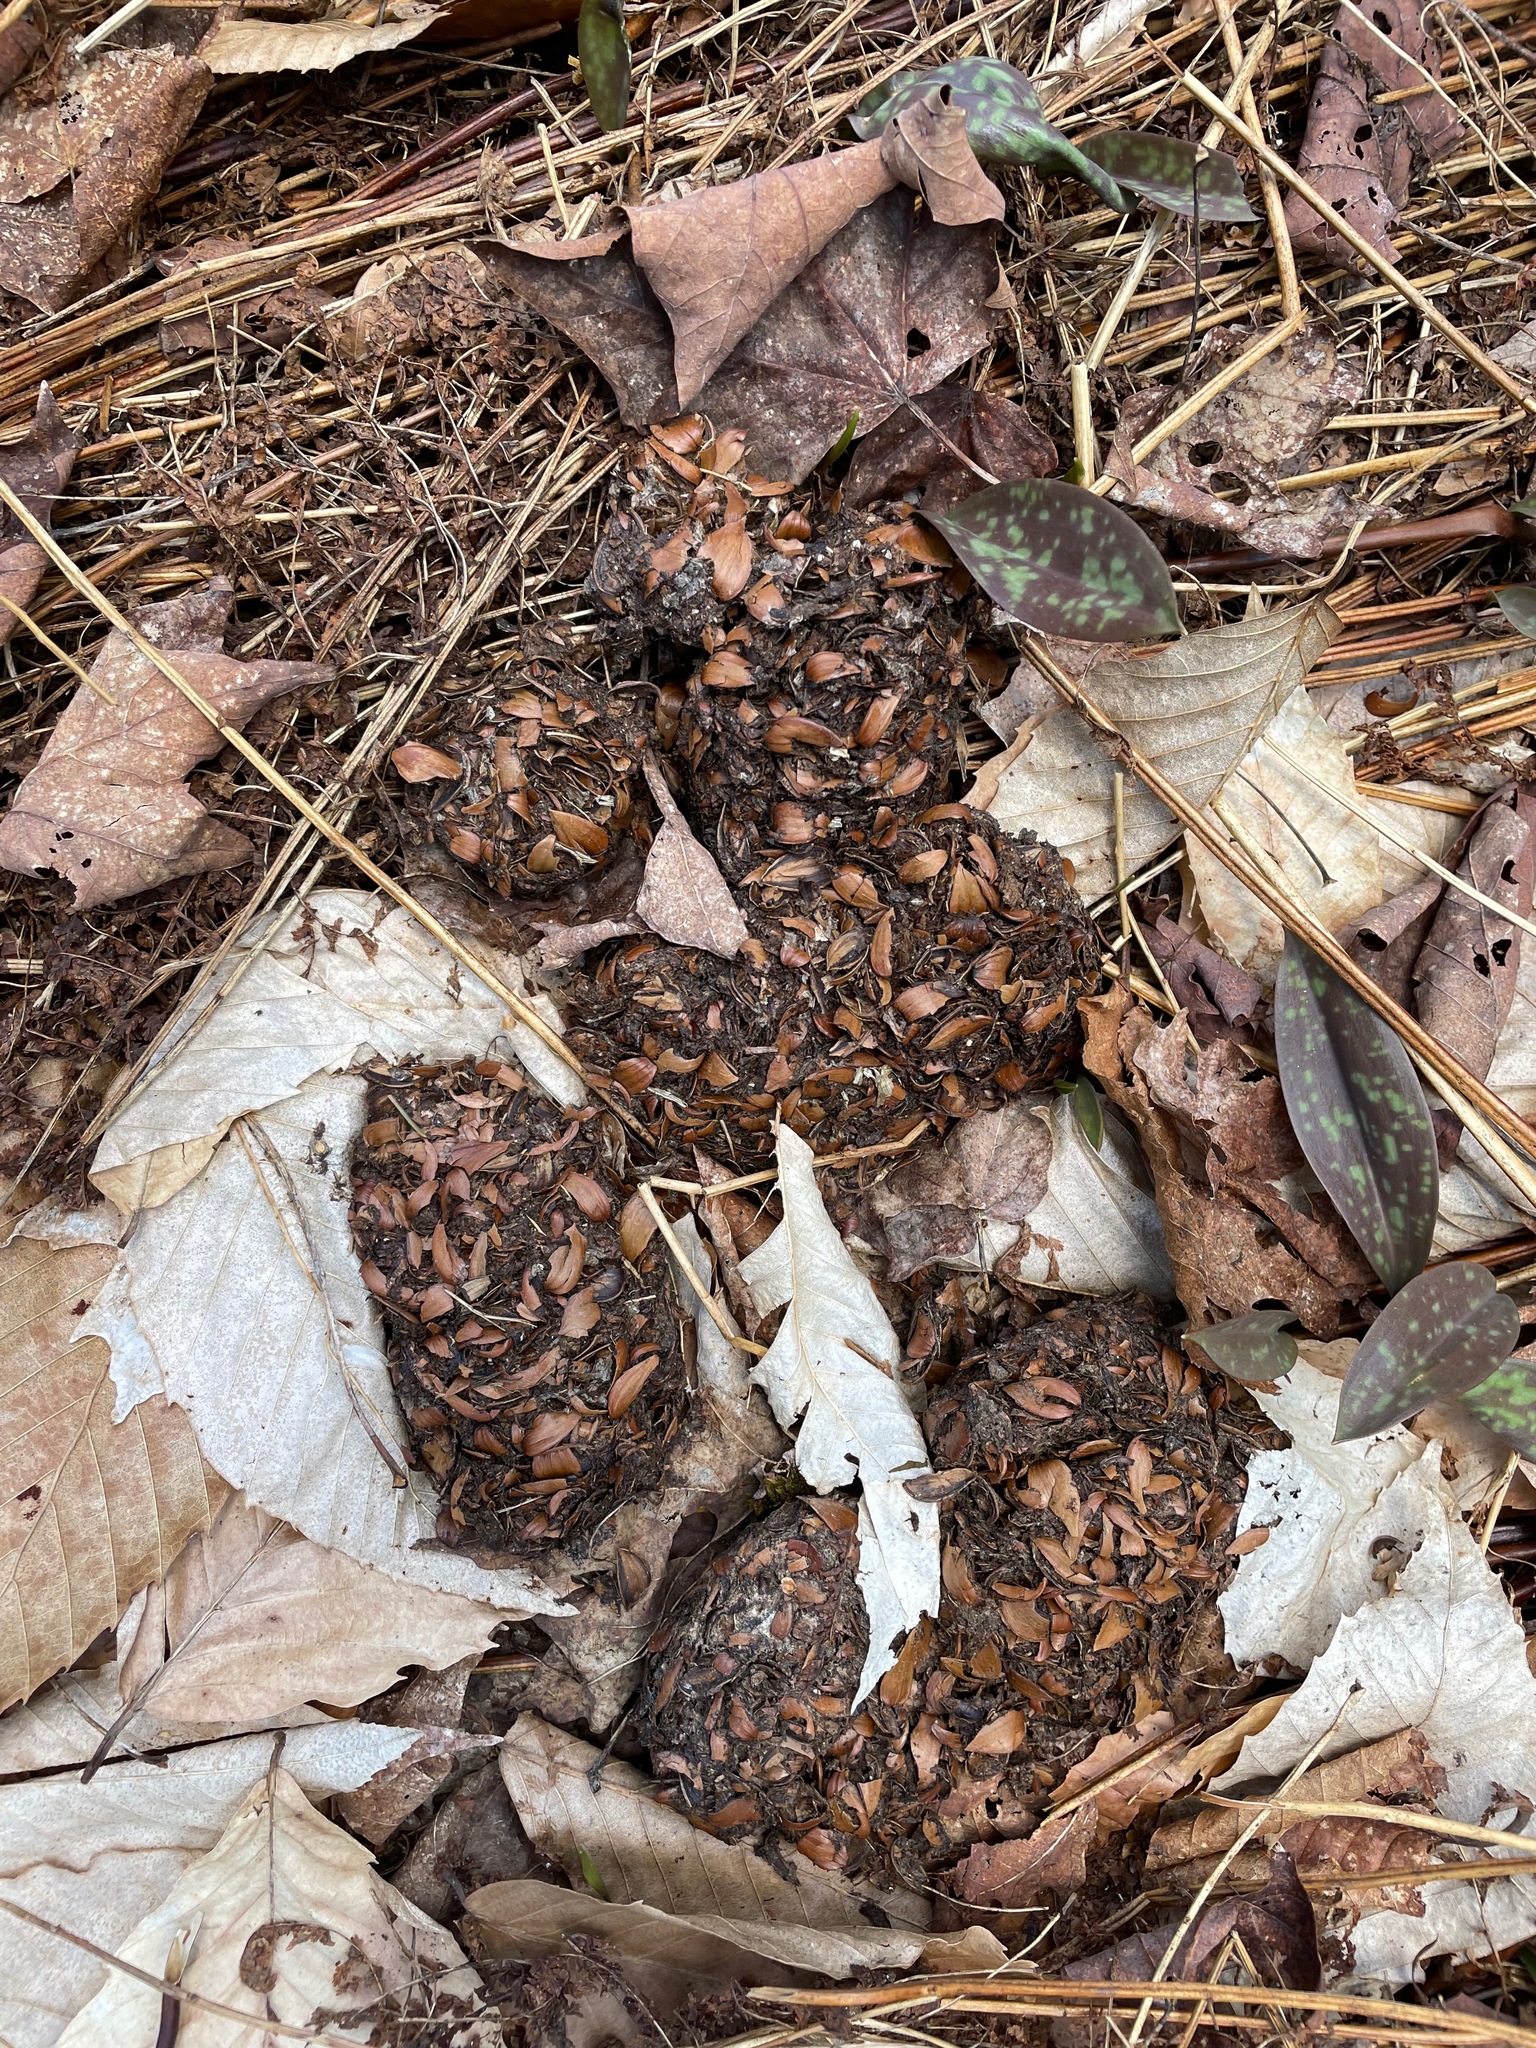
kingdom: Animalia
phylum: Chordata
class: Mammalia
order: Carnivora
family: Ursidae
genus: Ursus
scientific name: Ursus americanus
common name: American black bear
